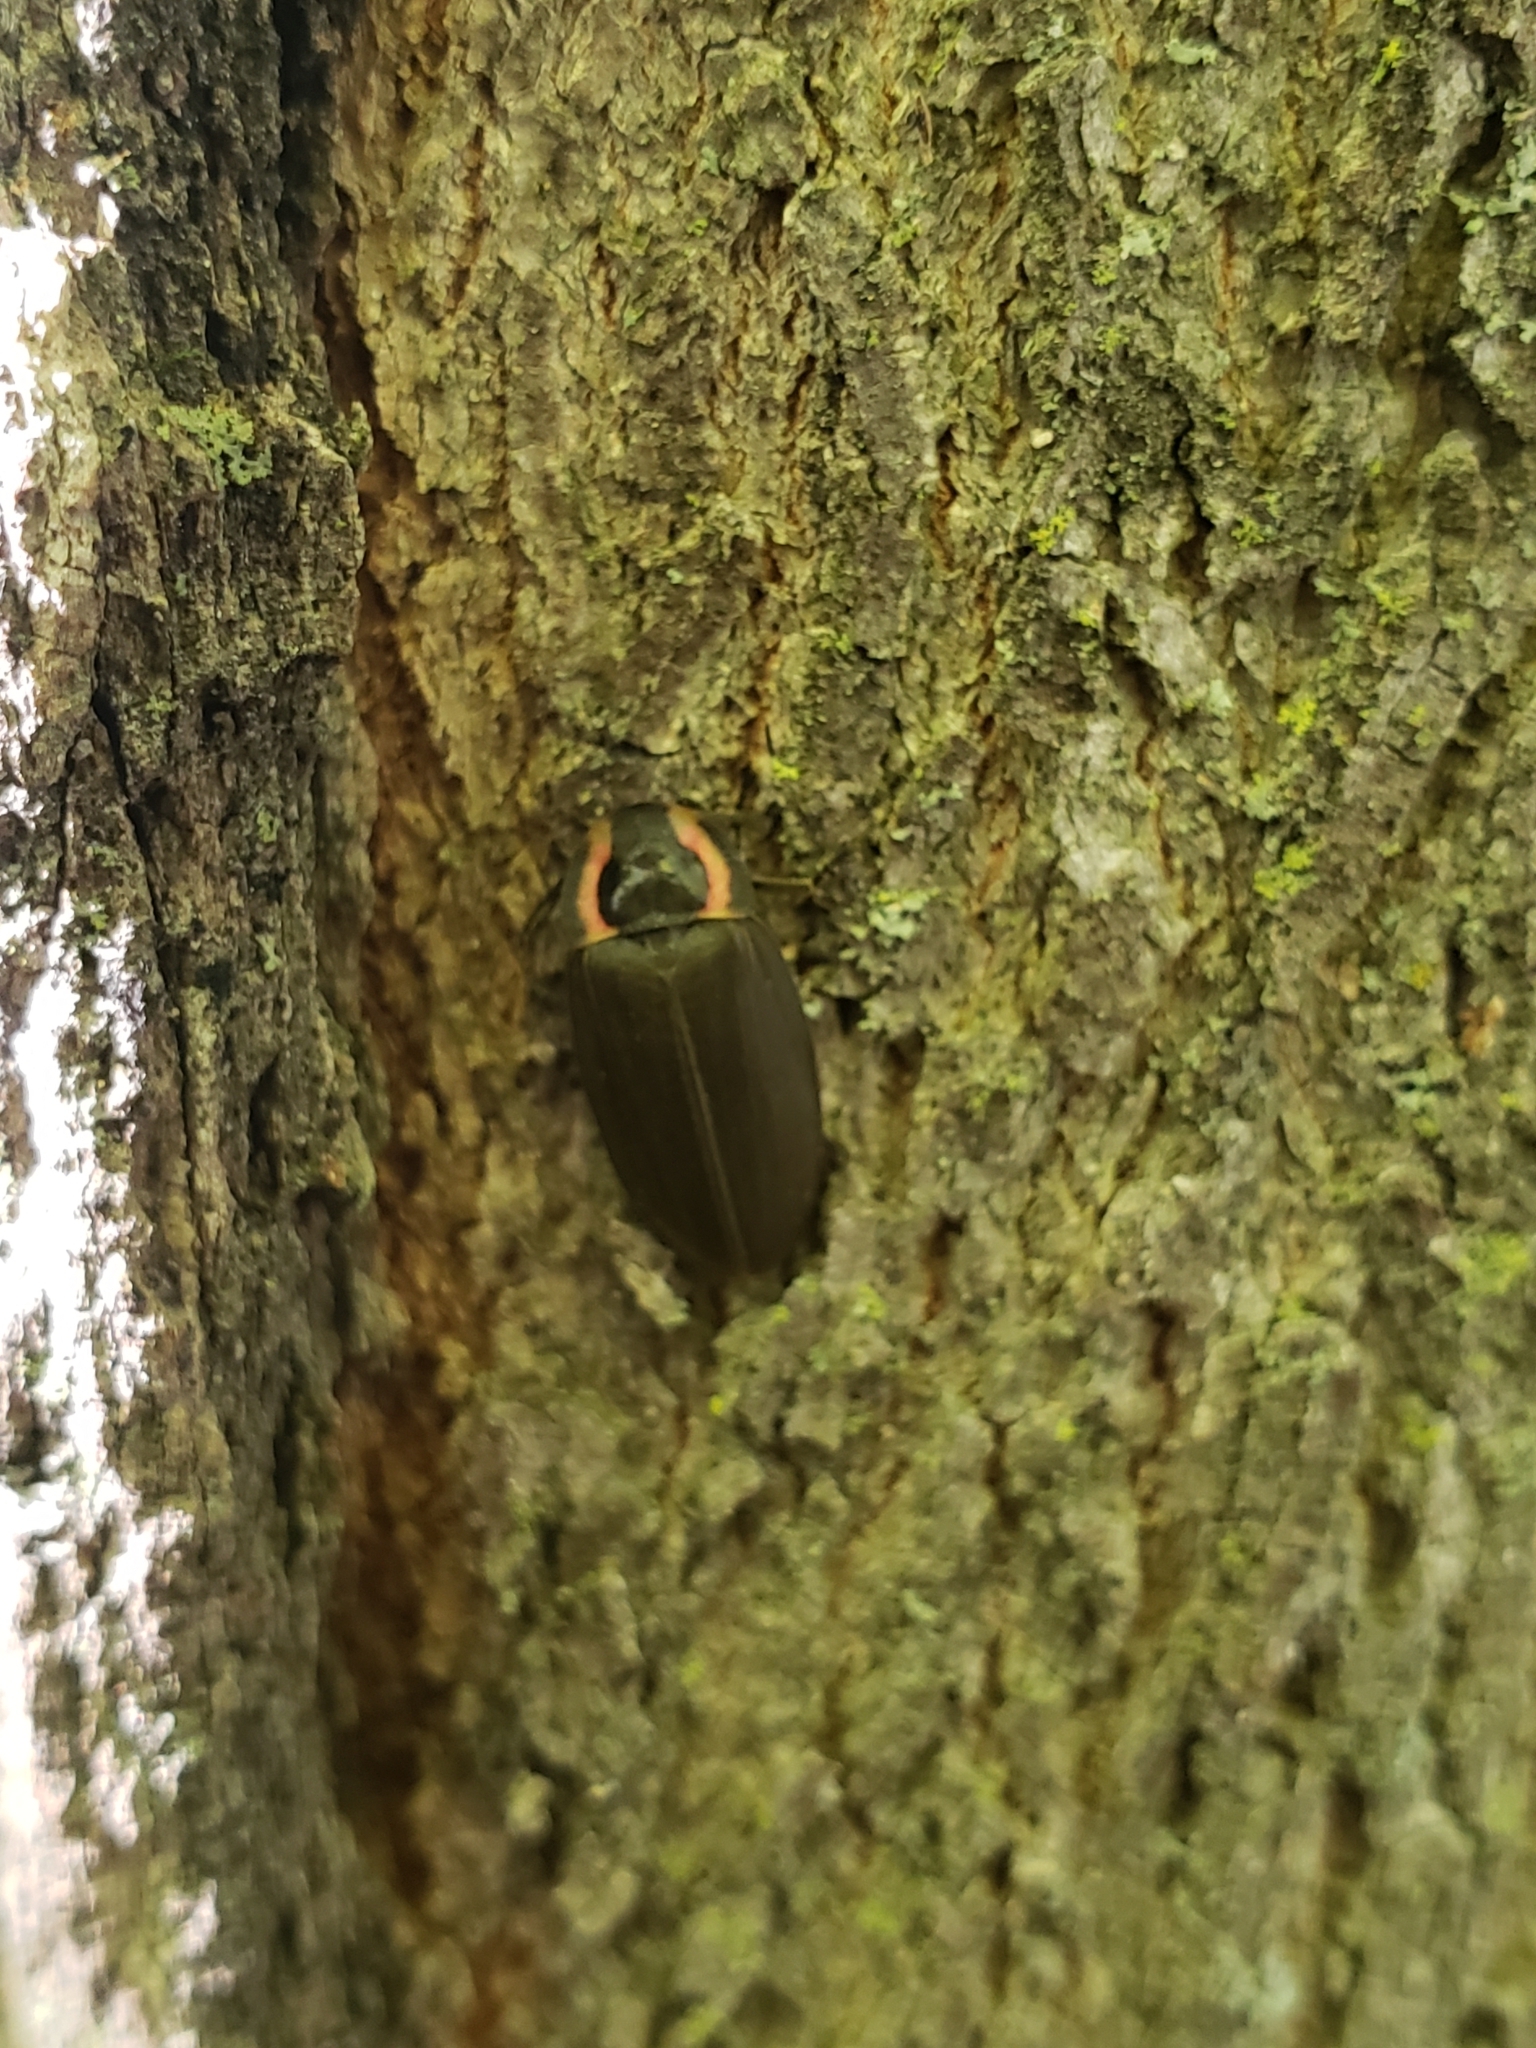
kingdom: Animalia
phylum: Arthropoda
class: Insecta
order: Coleoptera
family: Lampyridae
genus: Photinus
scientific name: Photinus corrusca
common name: Winter firefly
